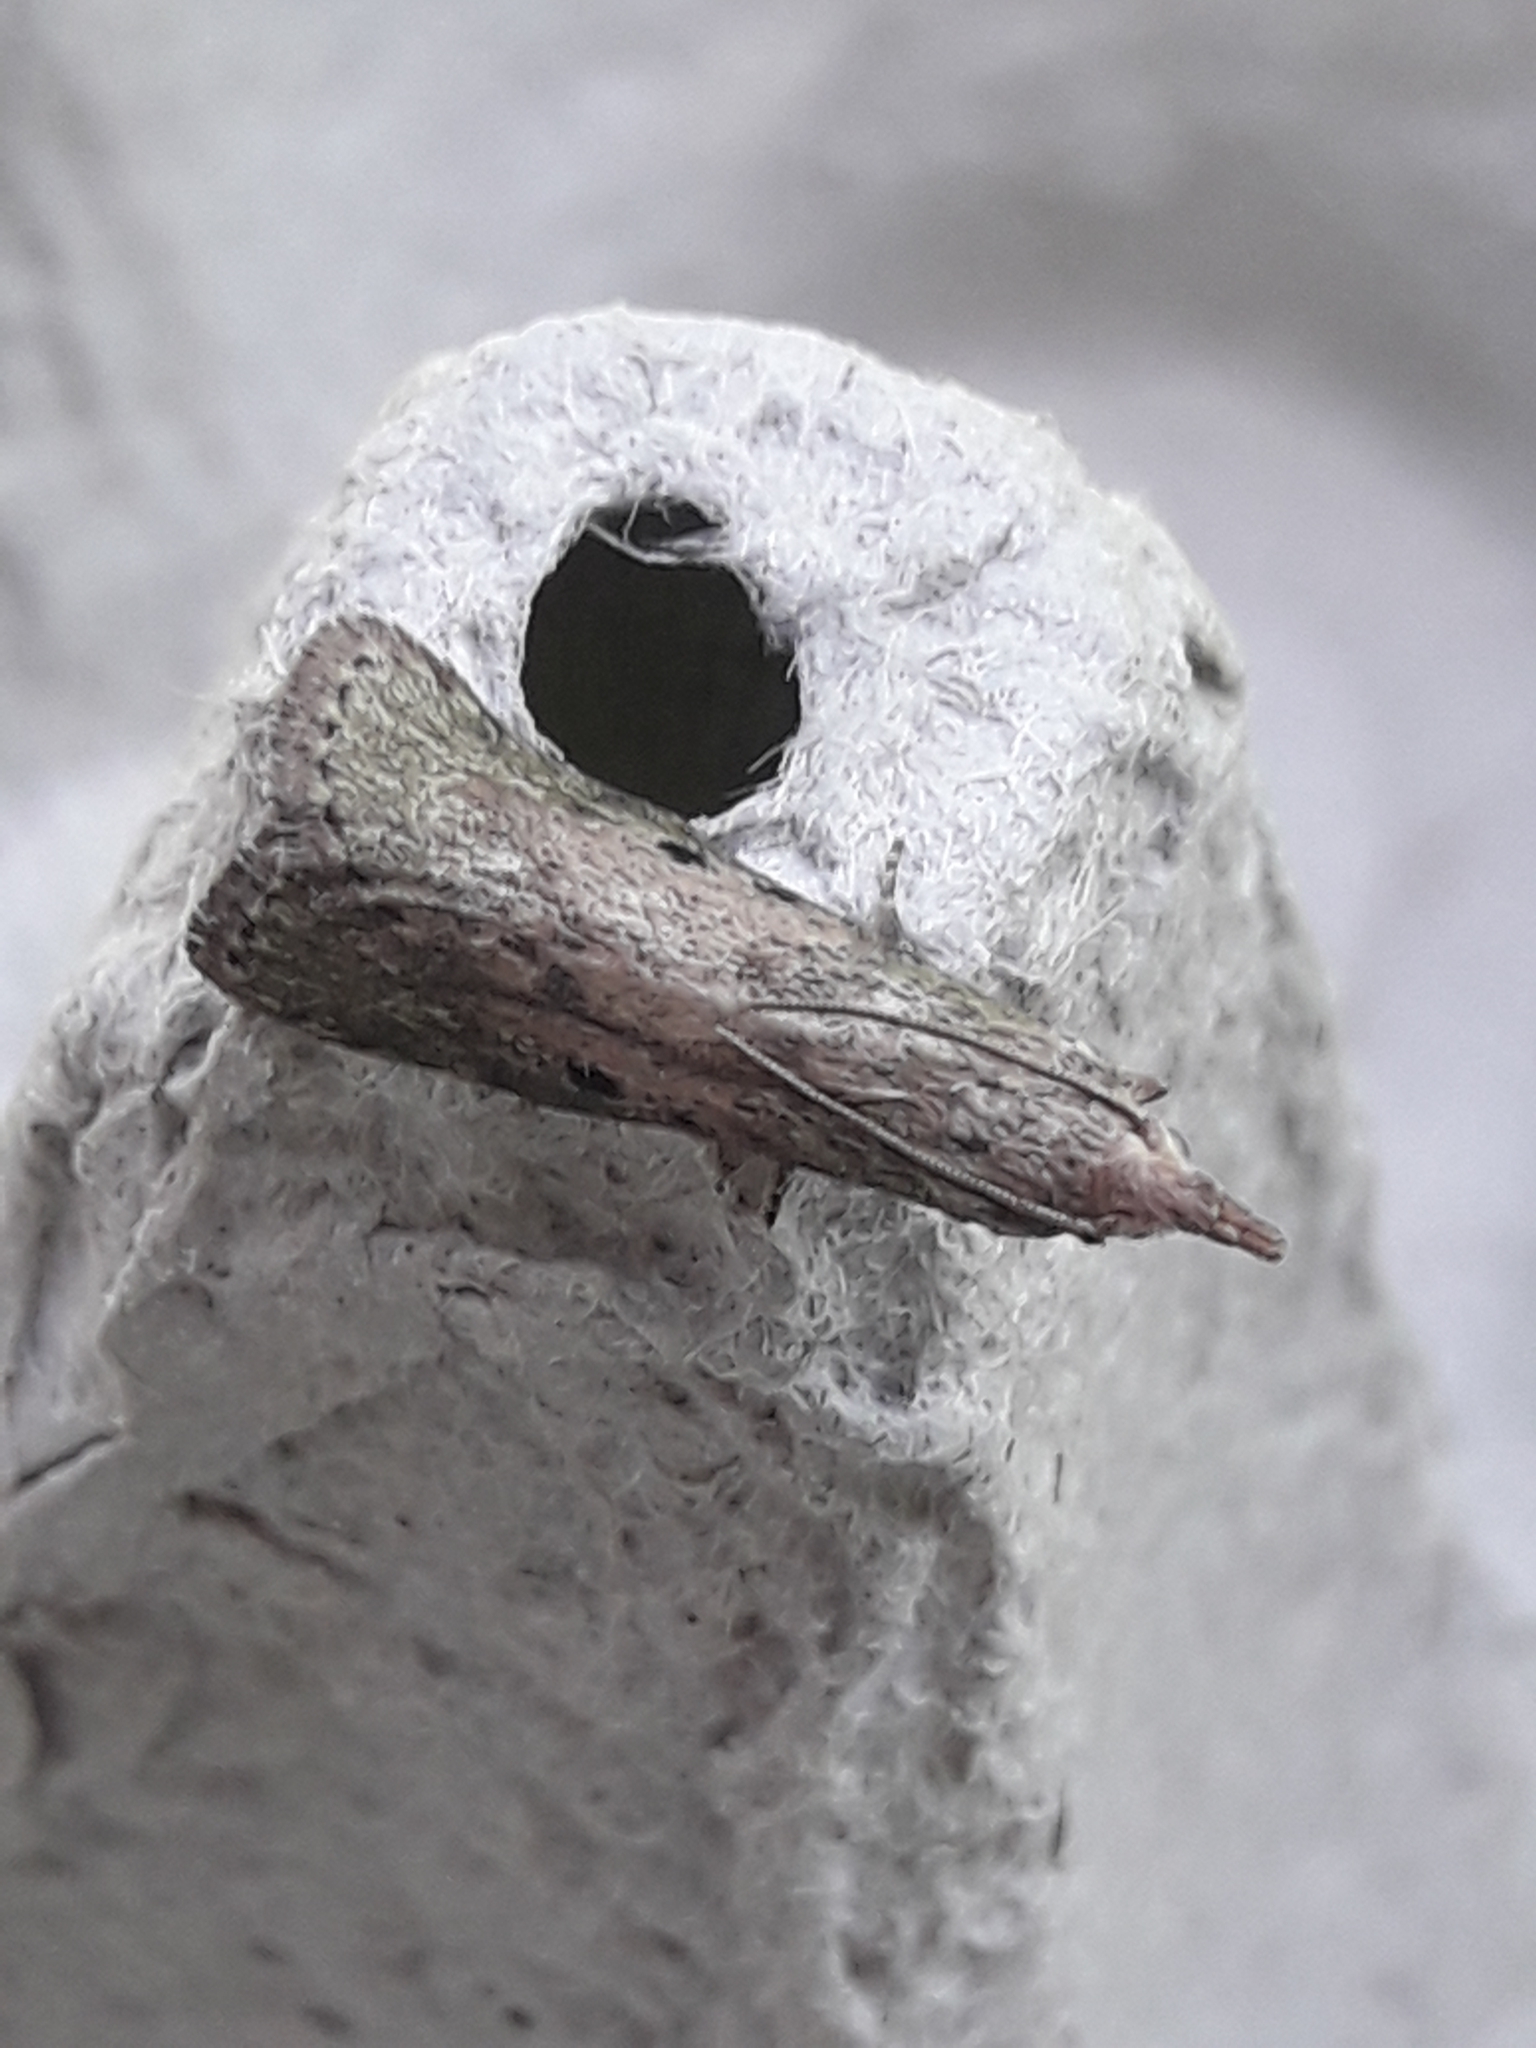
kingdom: Animalia
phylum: Arthropoda
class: Insecta
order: Lepidoptera
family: Pyralidae
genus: Aphomia
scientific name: Aphomia sociella
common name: Bee moth
